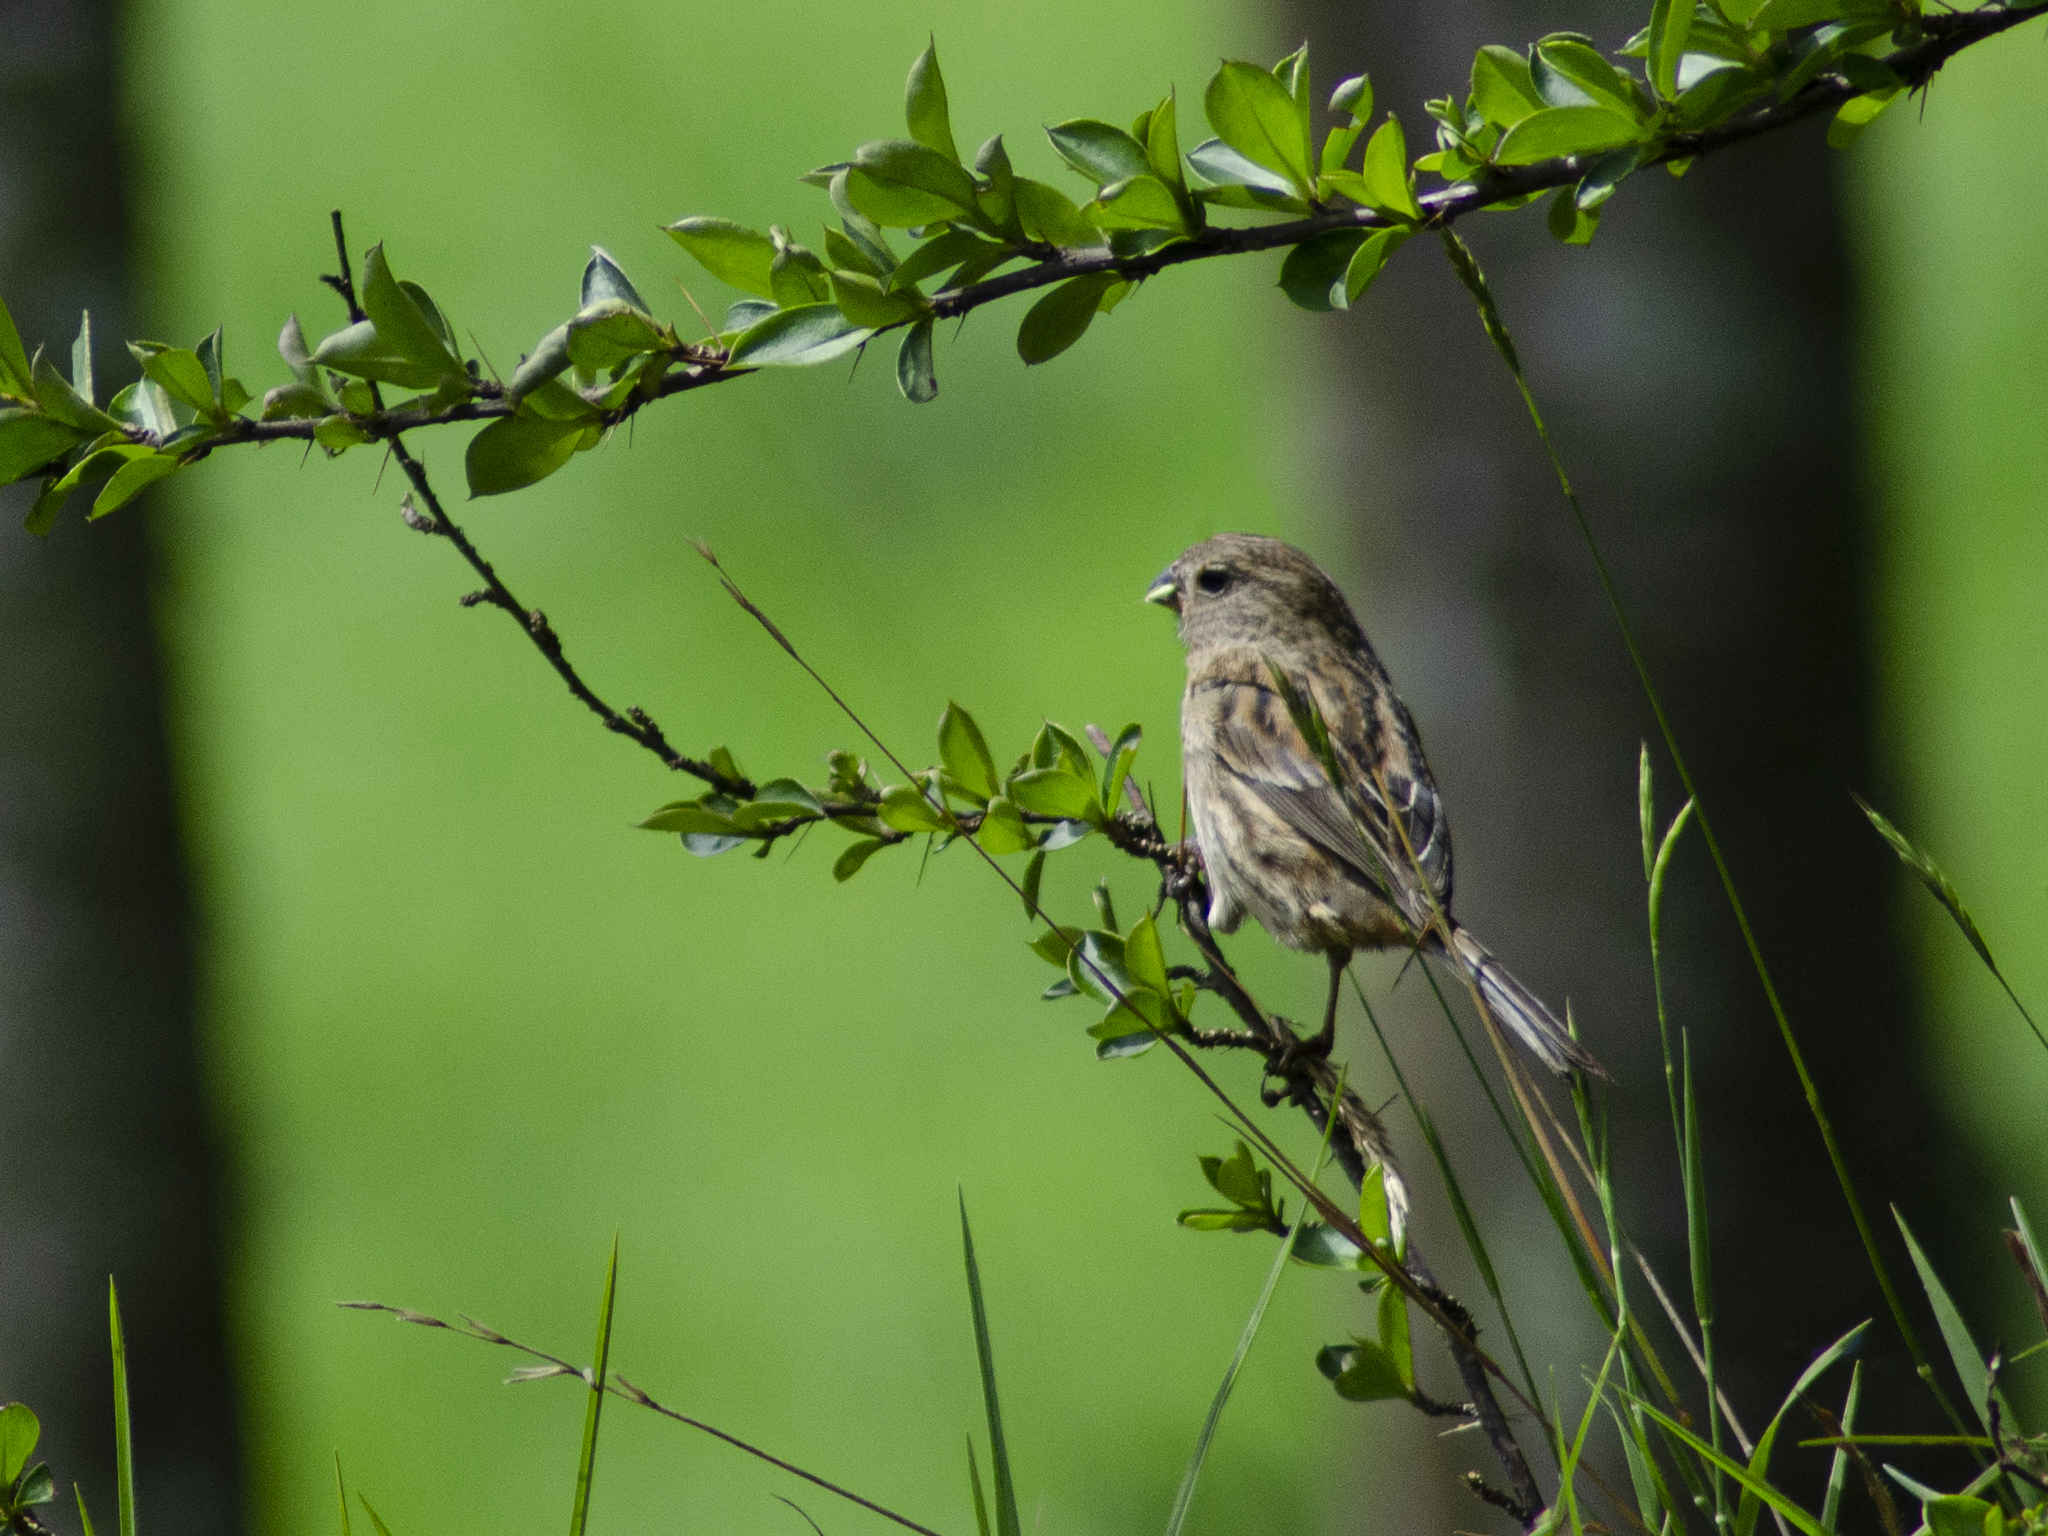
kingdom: Animalia
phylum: Chordata
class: Aves
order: Passeriformes
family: Thraupidae
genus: Catamenia
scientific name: Catamenia inornata
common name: Plain-colored seedeater
